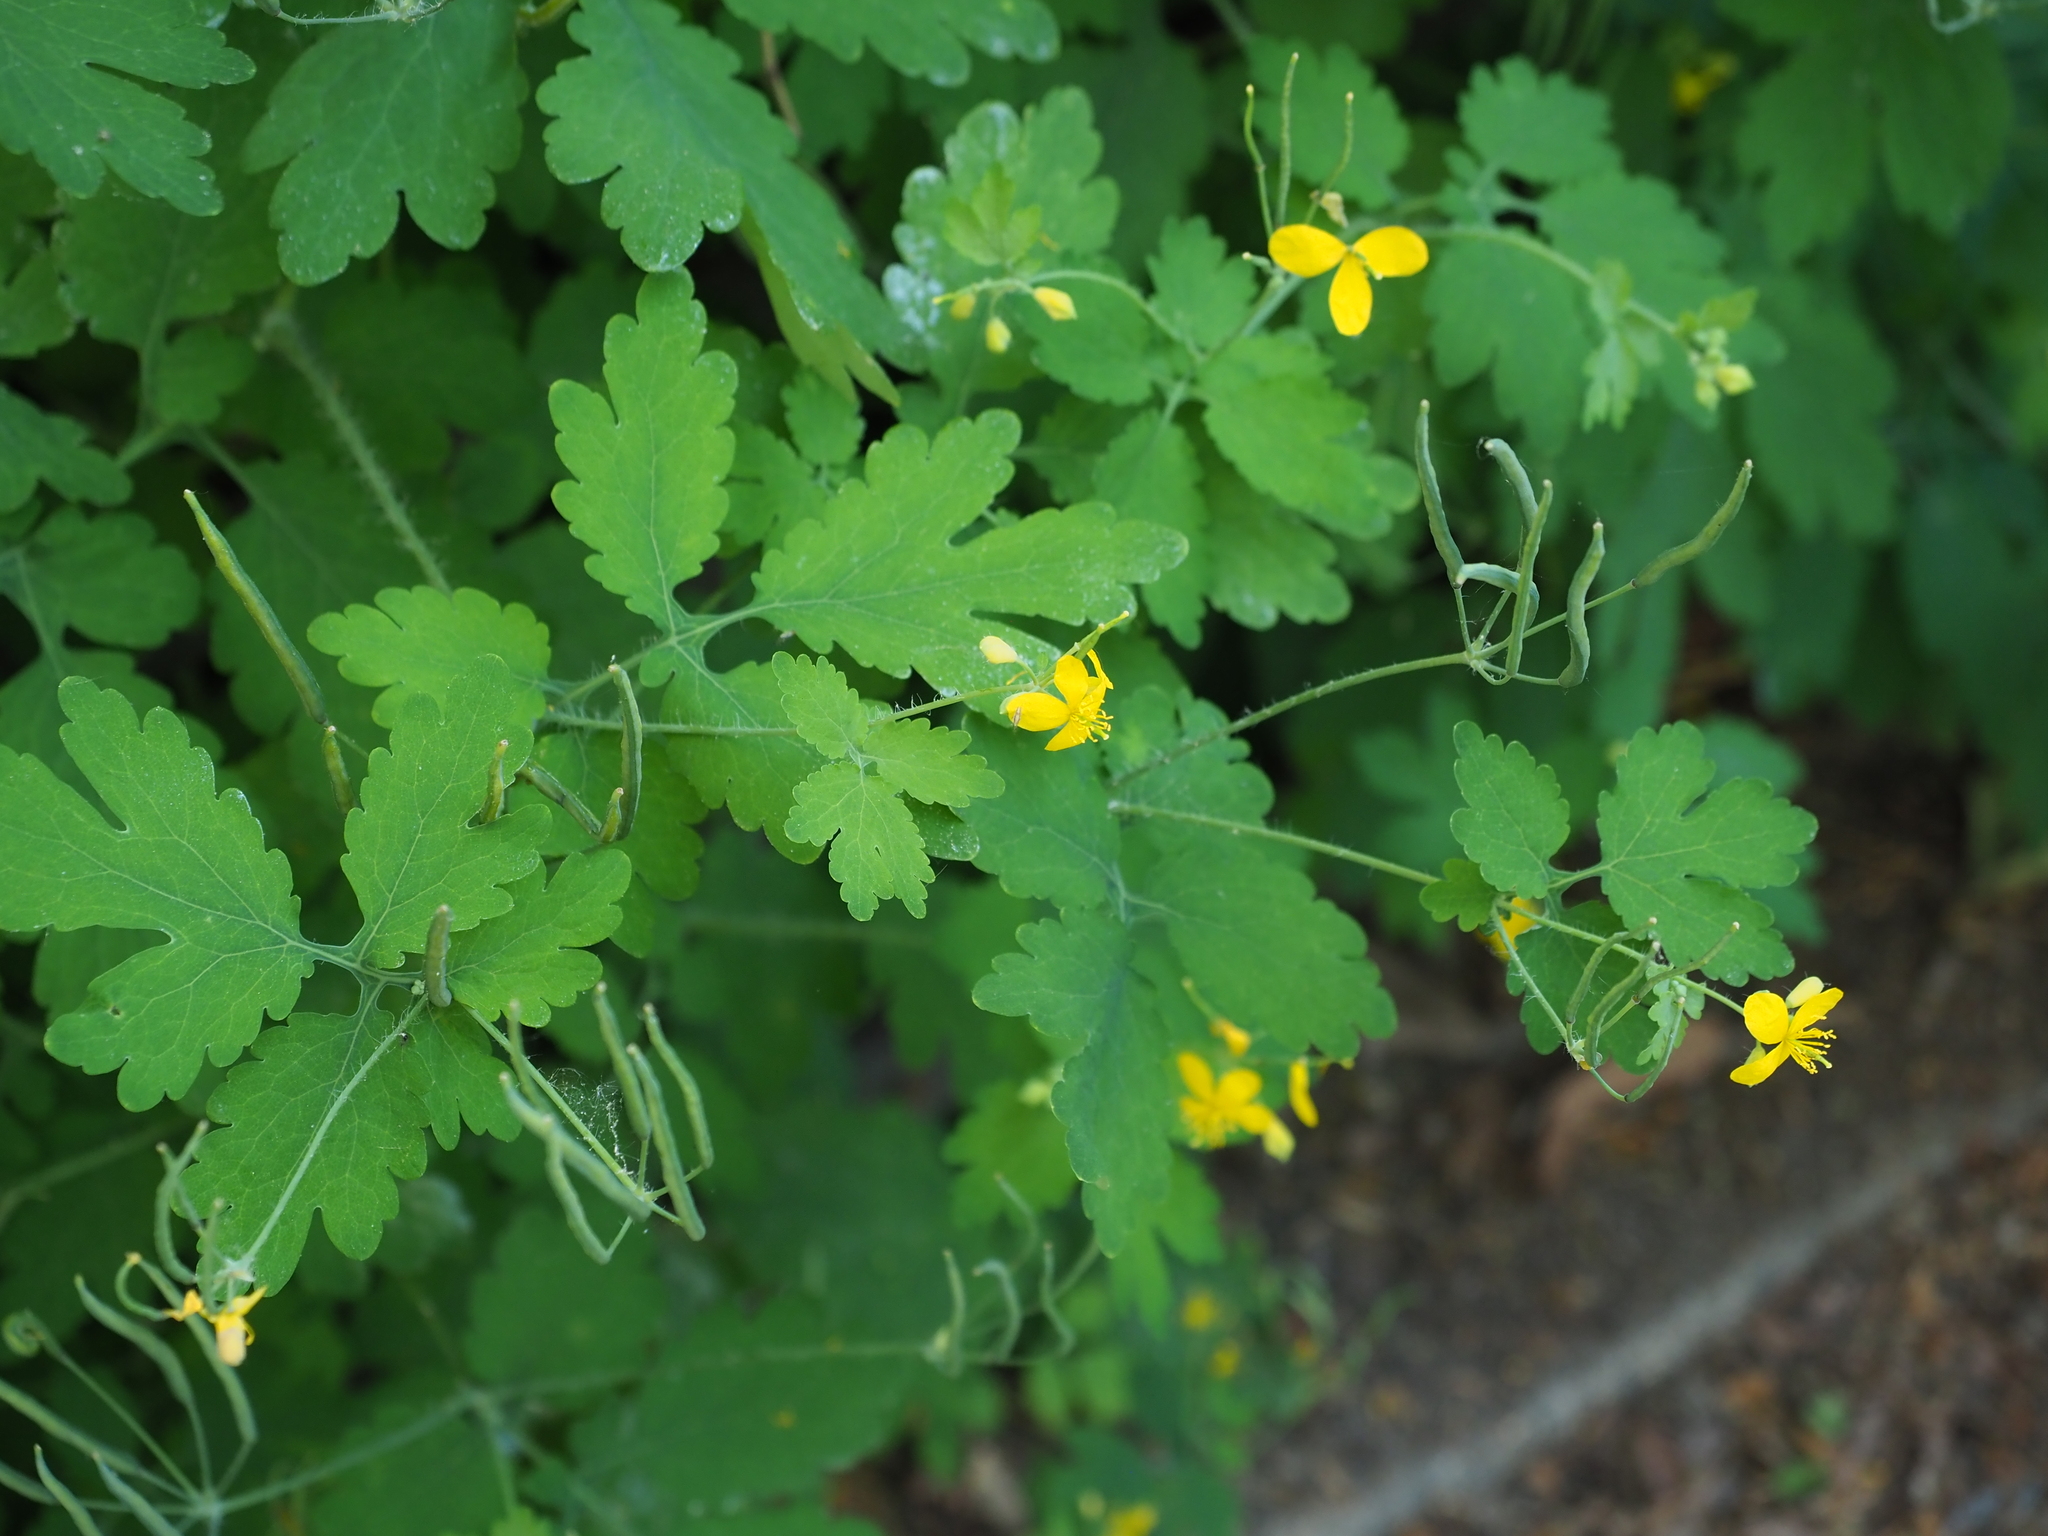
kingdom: Plantae
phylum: Tracheophyta
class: Magnoliopsida
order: Ranunculales
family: Papaveraceae
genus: Chelidonium
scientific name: Chelidonium majus
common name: Greater celandine
